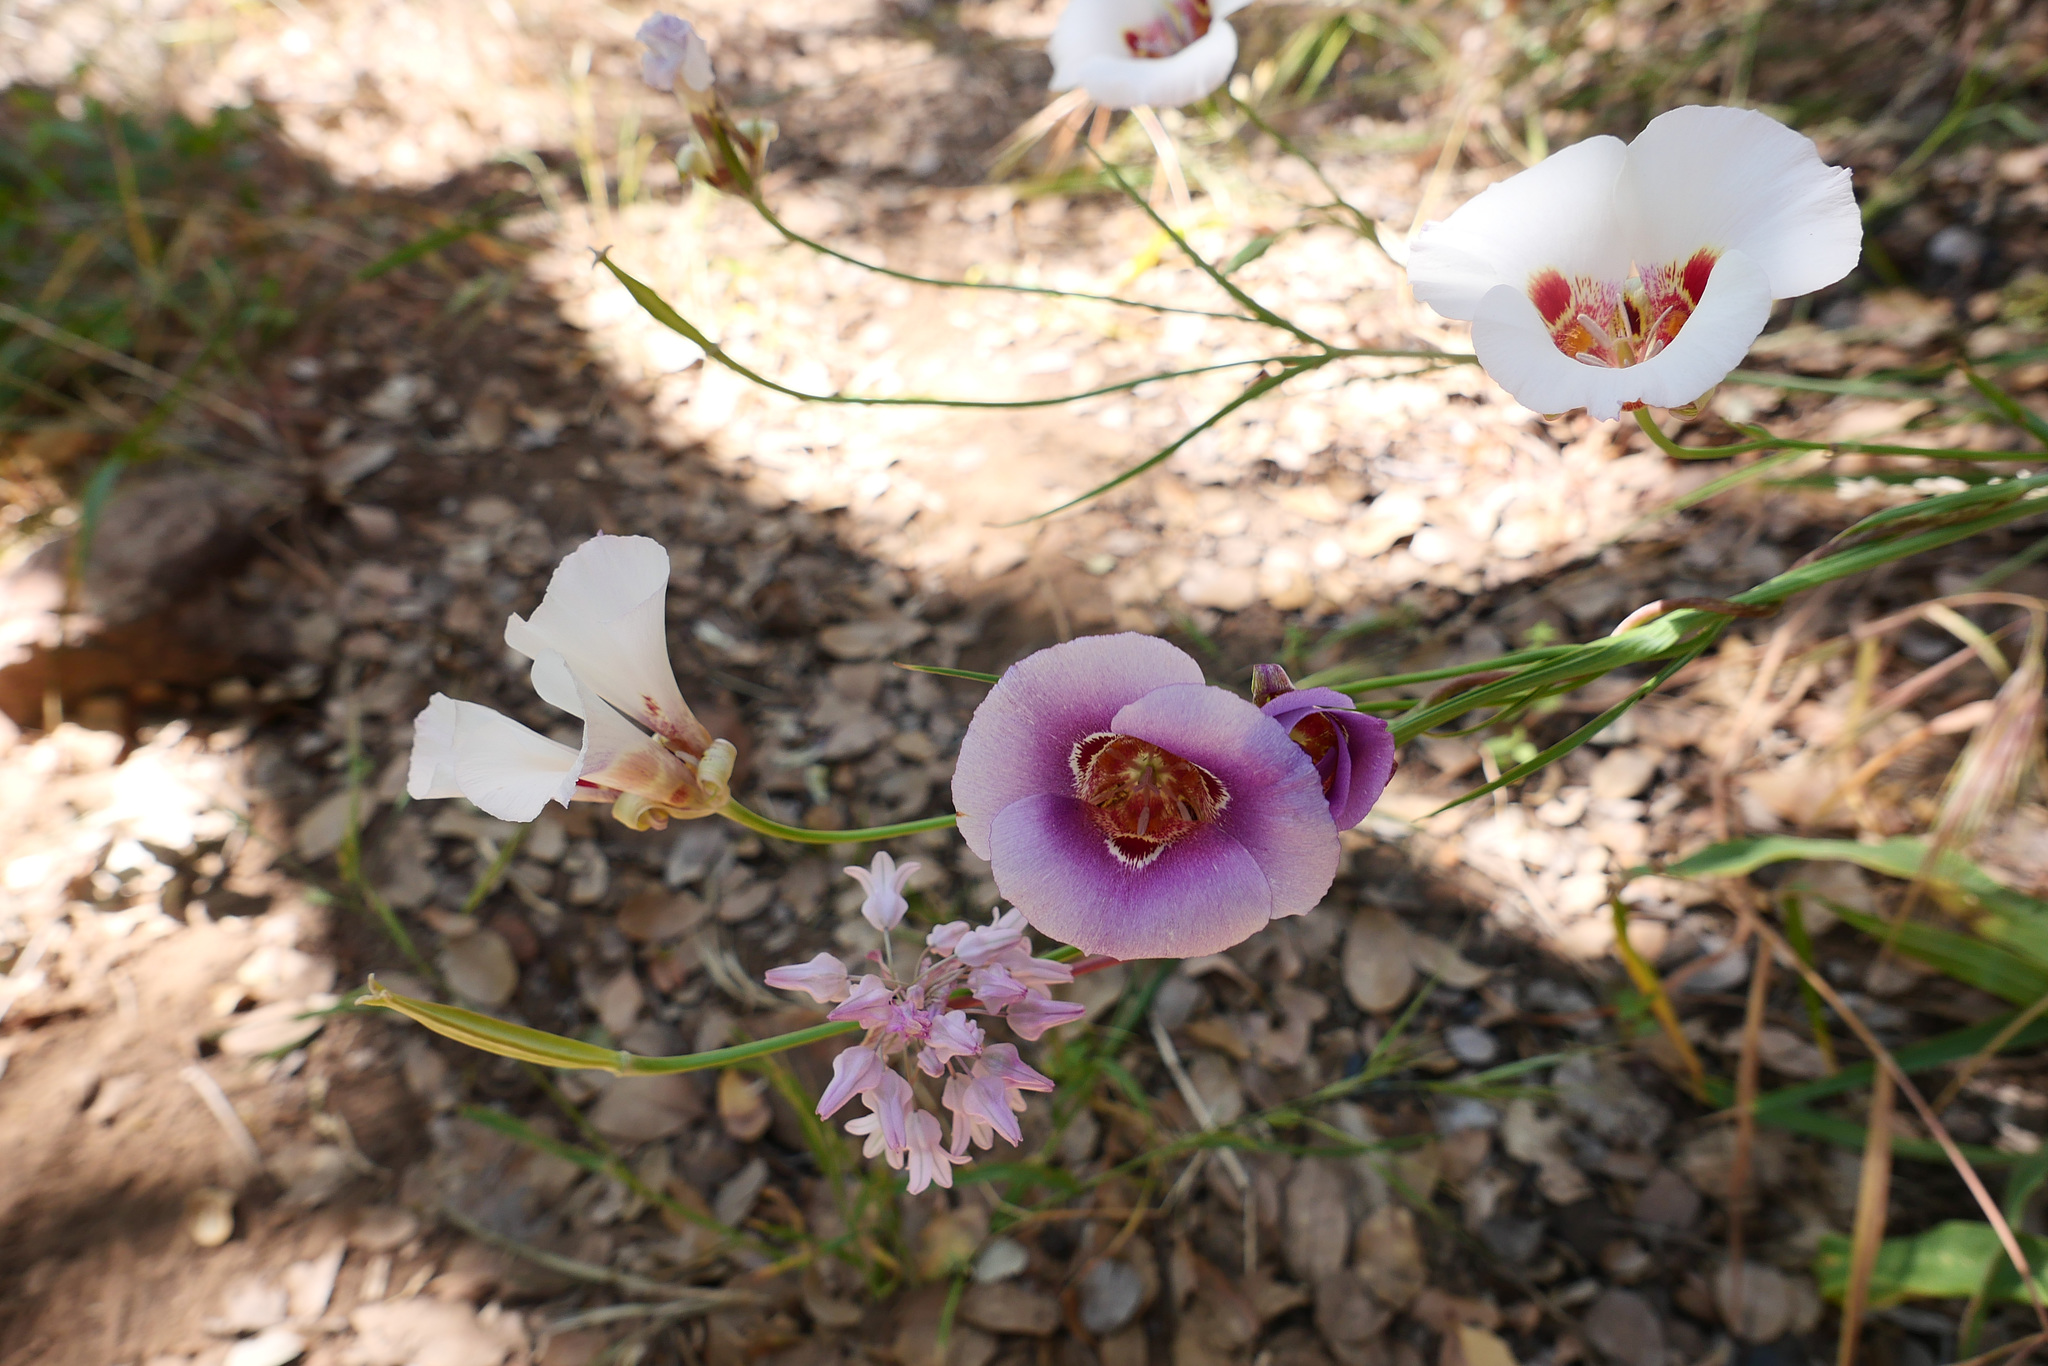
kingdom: Plantae
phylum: Tracheophyta
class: Liliopsida
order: Liliales
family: Liliaceae
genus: Calochortus
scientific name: Calochortus venustus
